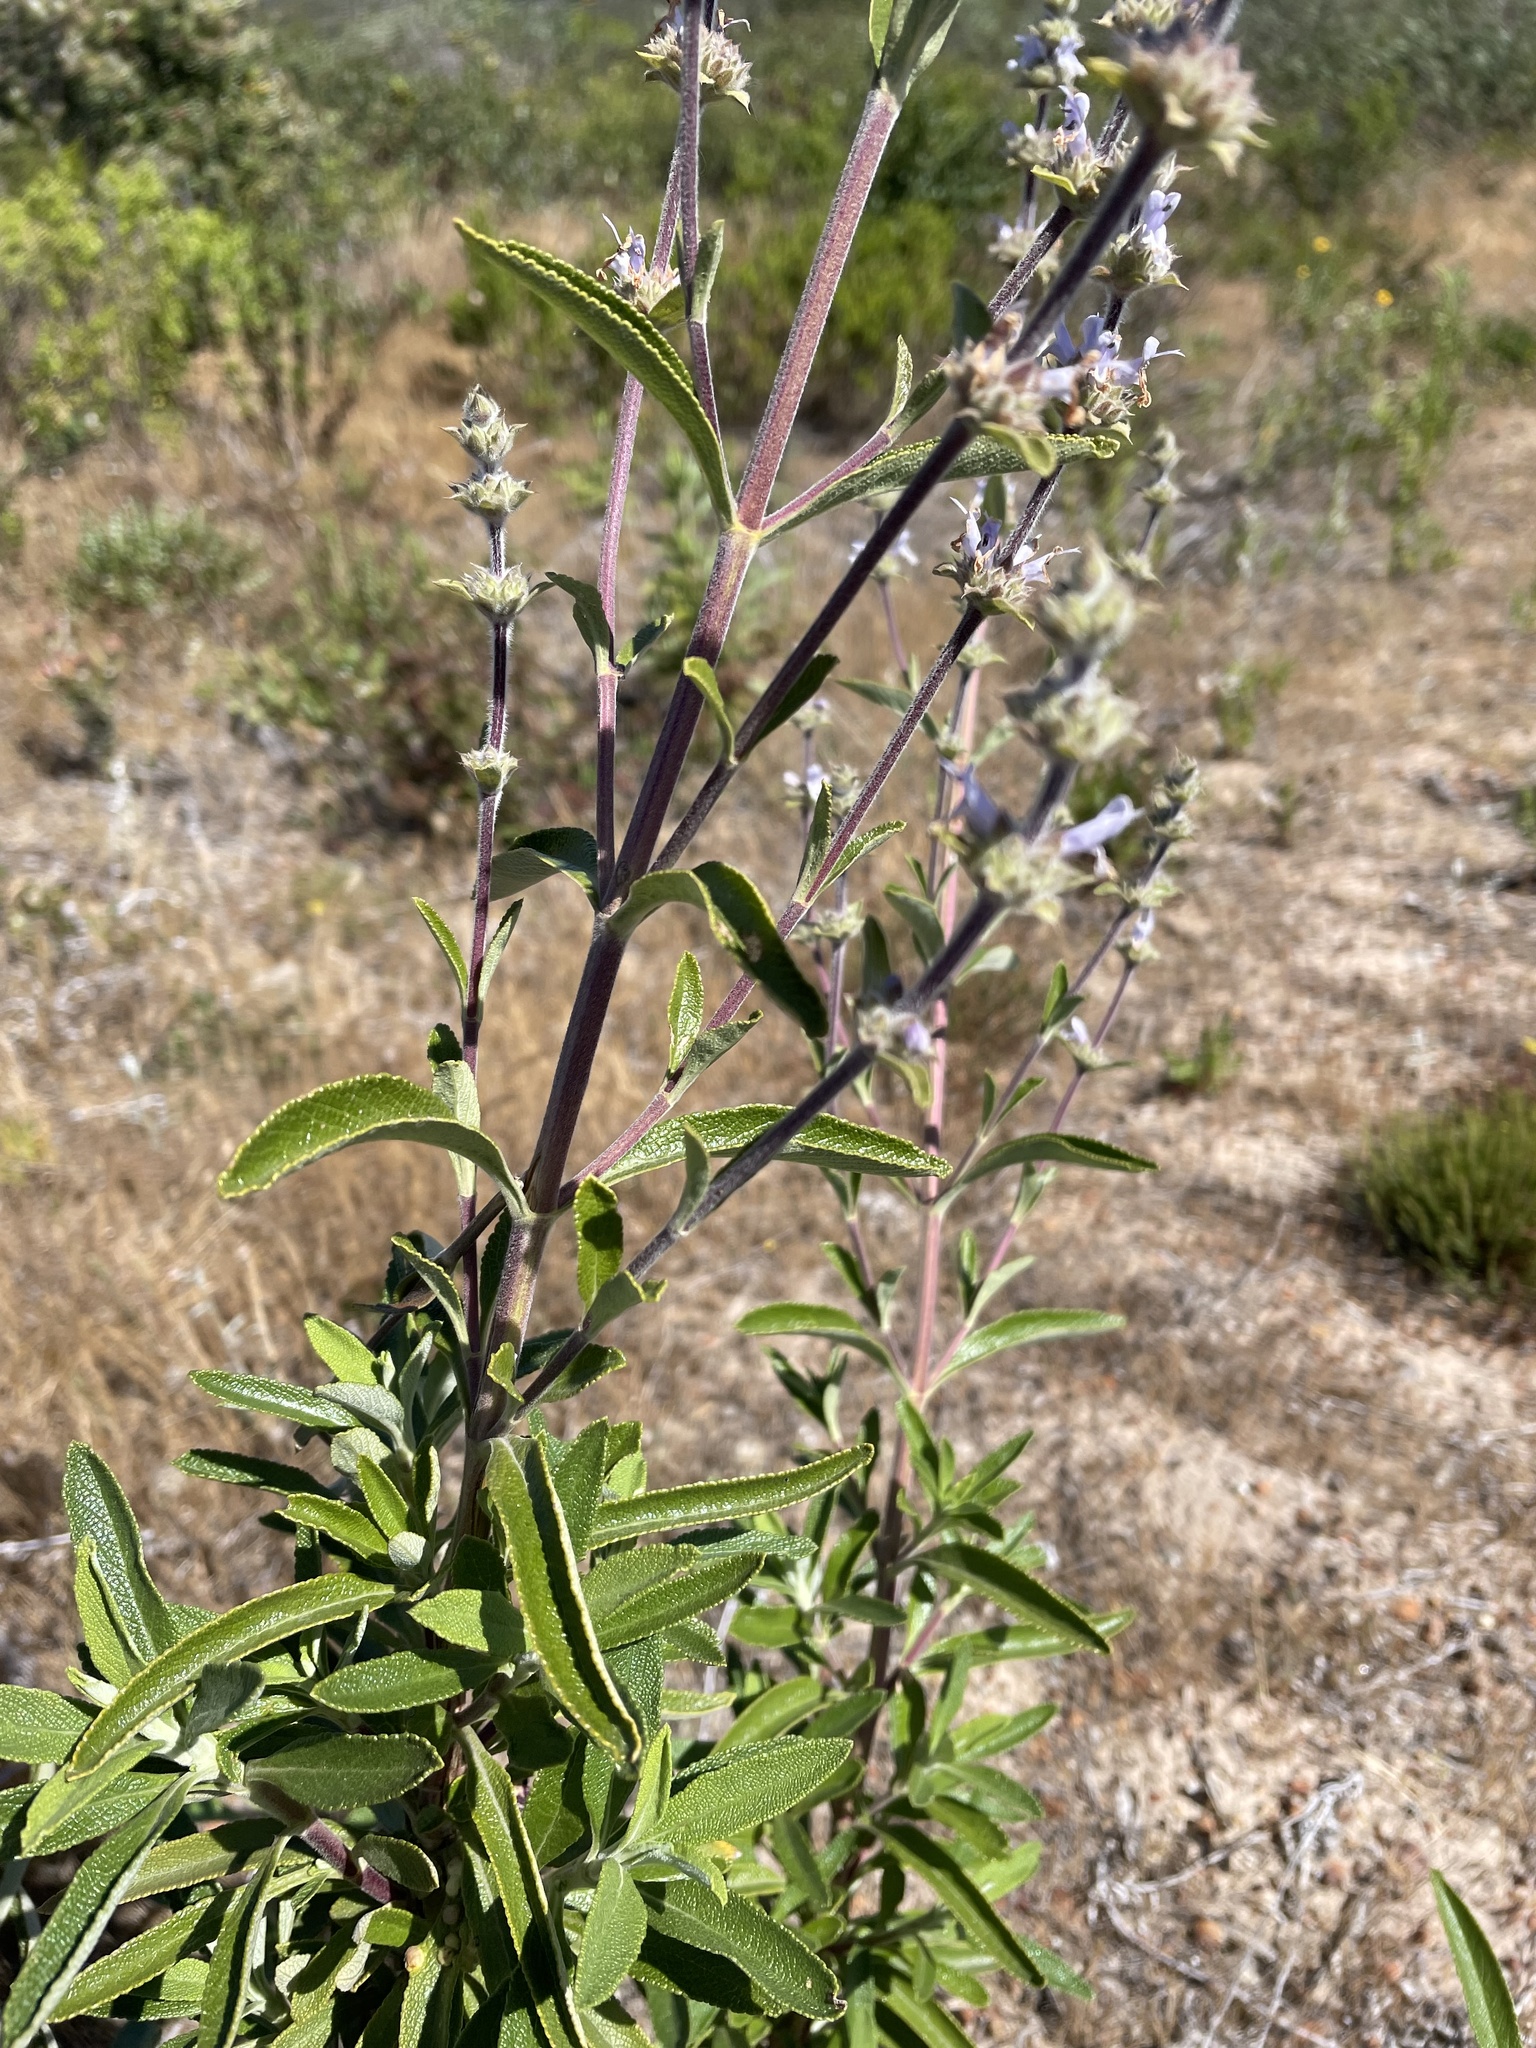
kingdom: Plantae
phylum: Tracheophyta
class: Magnoliopsida
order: Lamiales
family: Lamiaceae
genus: Salvia
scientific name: Salvia mellifera
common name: Black sage
